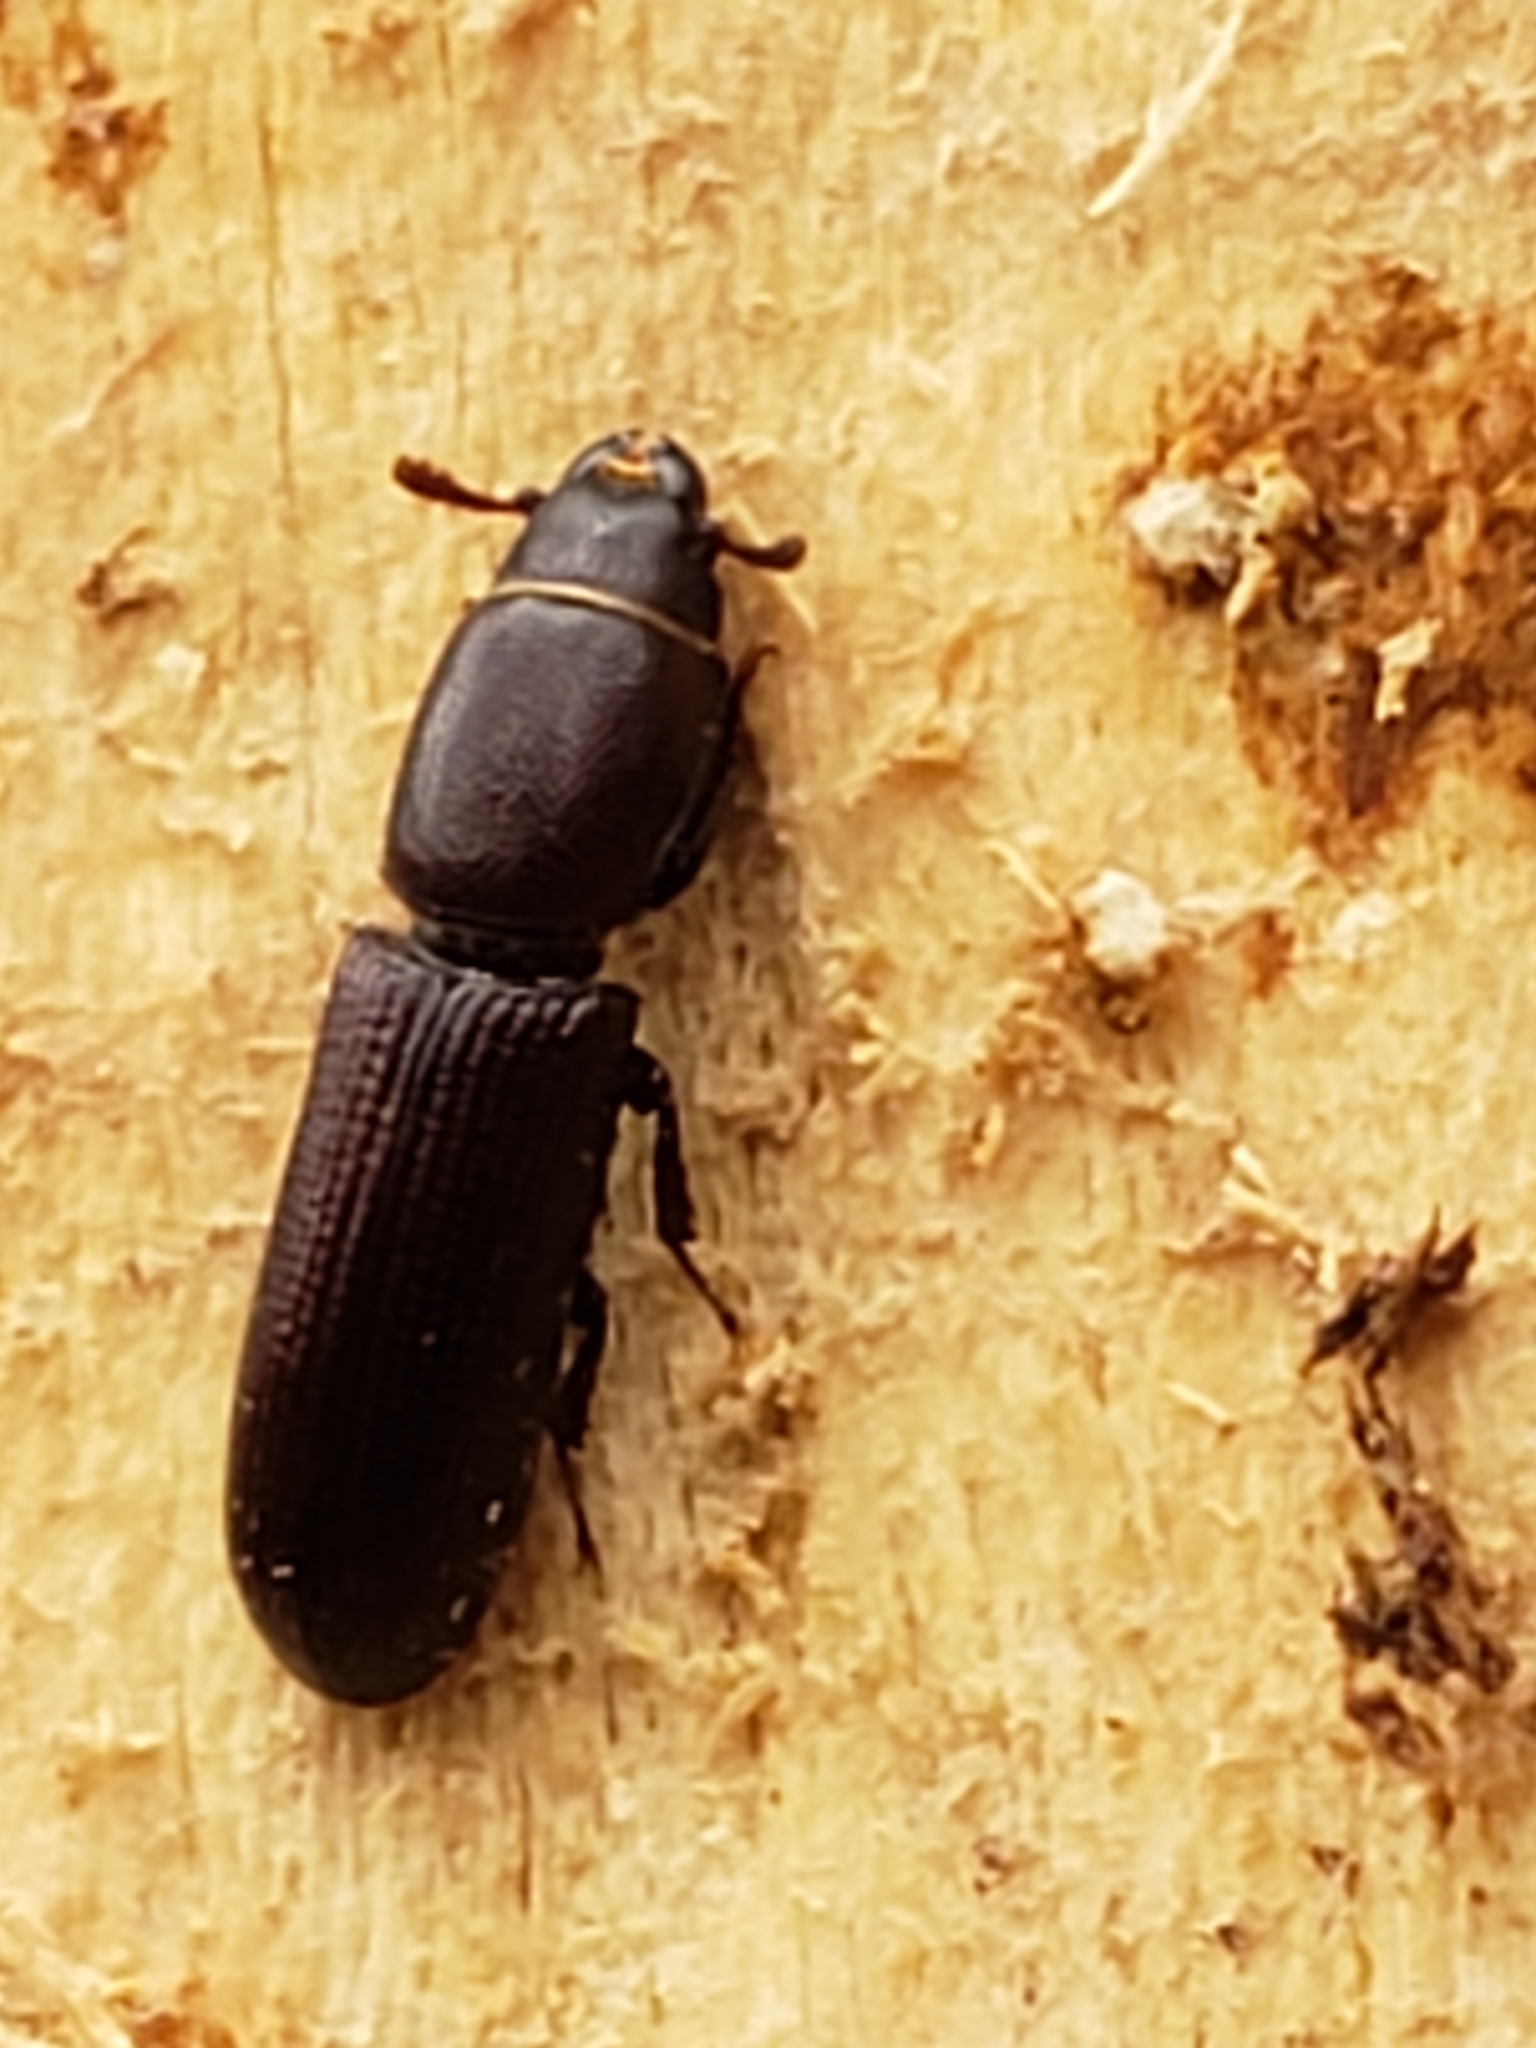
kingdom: Animalia
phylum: Arthropoda
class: Insecta
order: Coleoptera
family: Trogossitidae
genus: Airora
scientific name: Airora cylindrica
